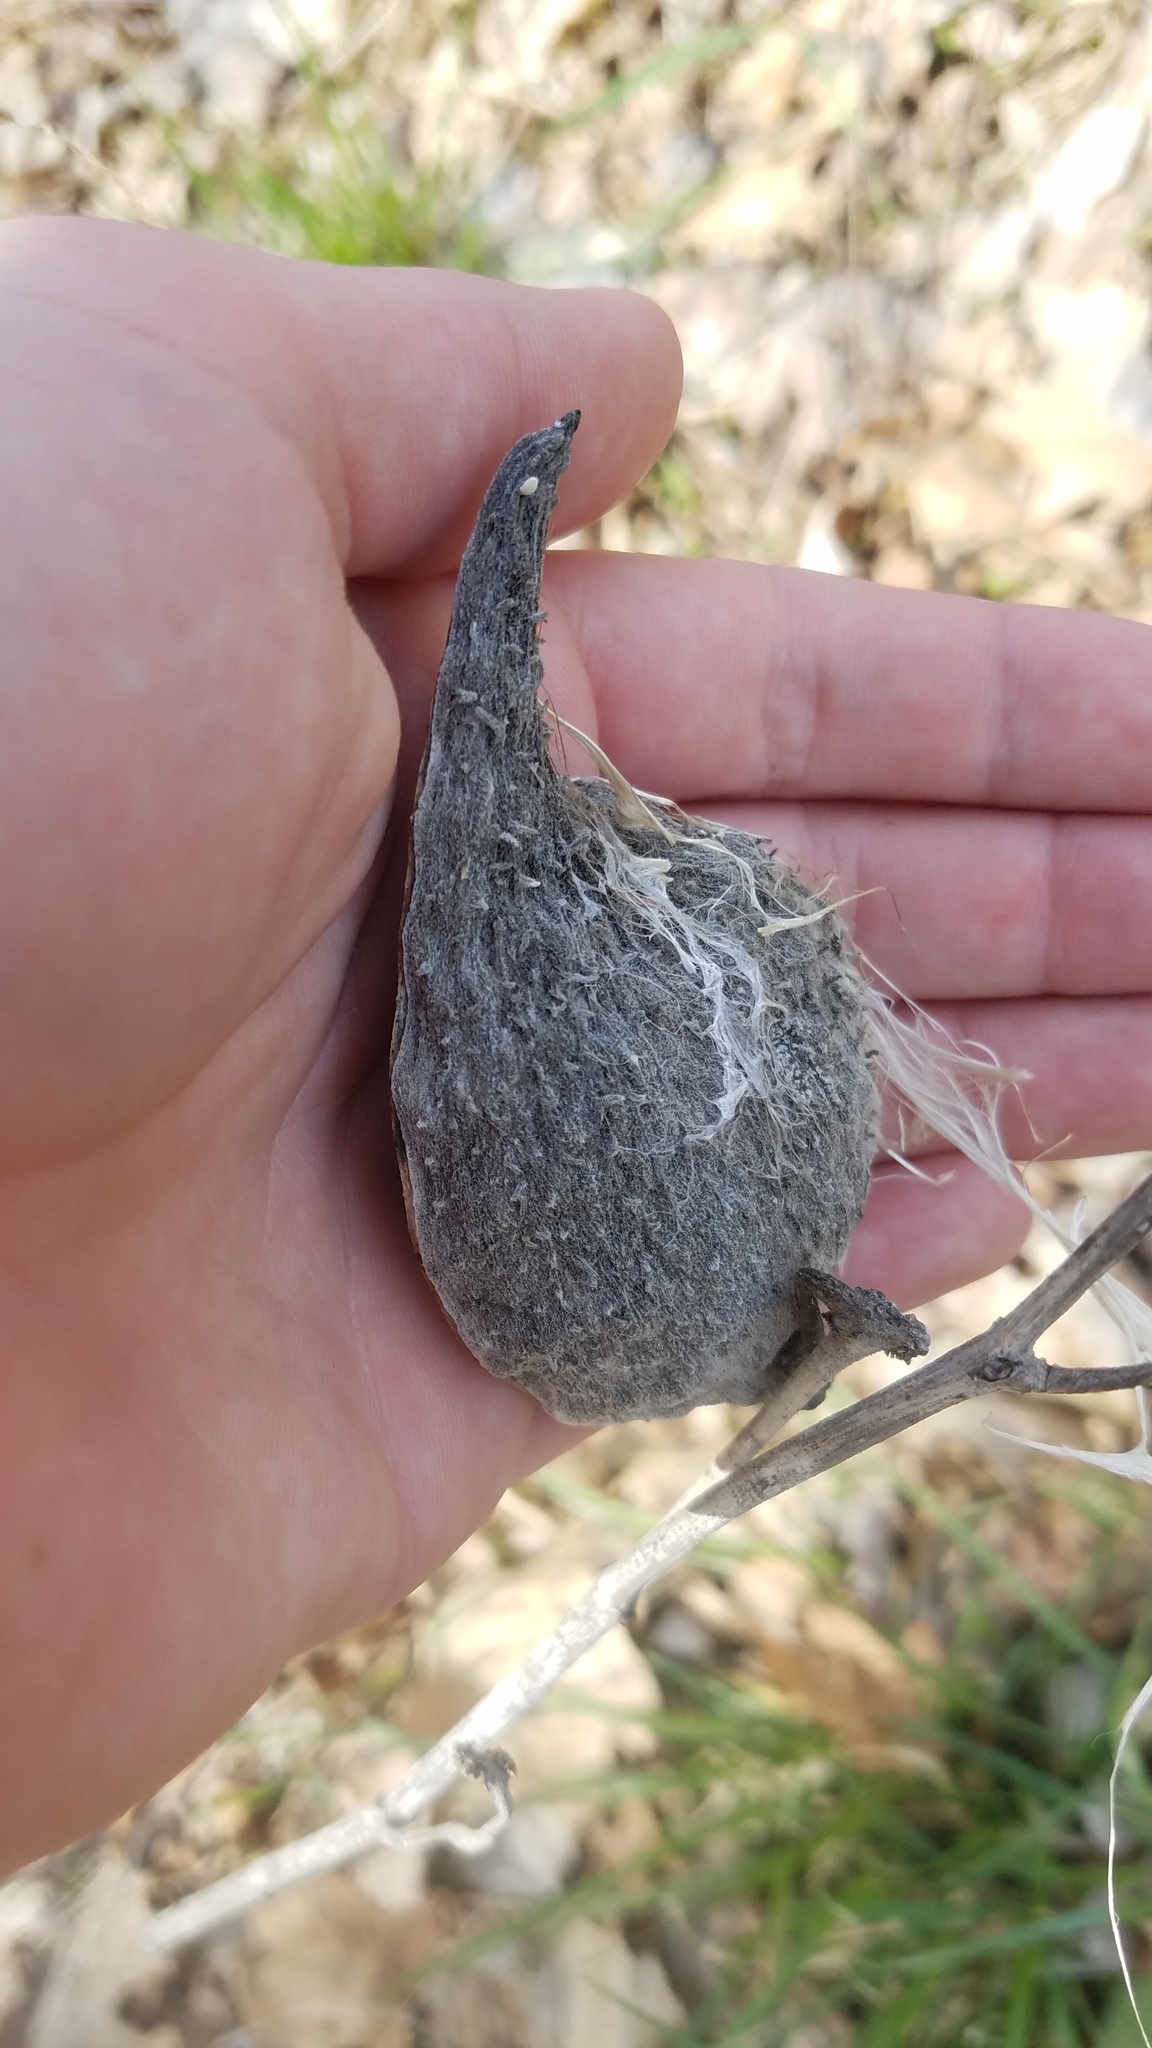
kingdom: Plantae
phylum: Tracheophyta
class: Magnoliopsida
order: Gentianales
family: Apocynaceae
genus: Asclepias
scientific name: Asclepias syriaca
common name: Common milkweed
